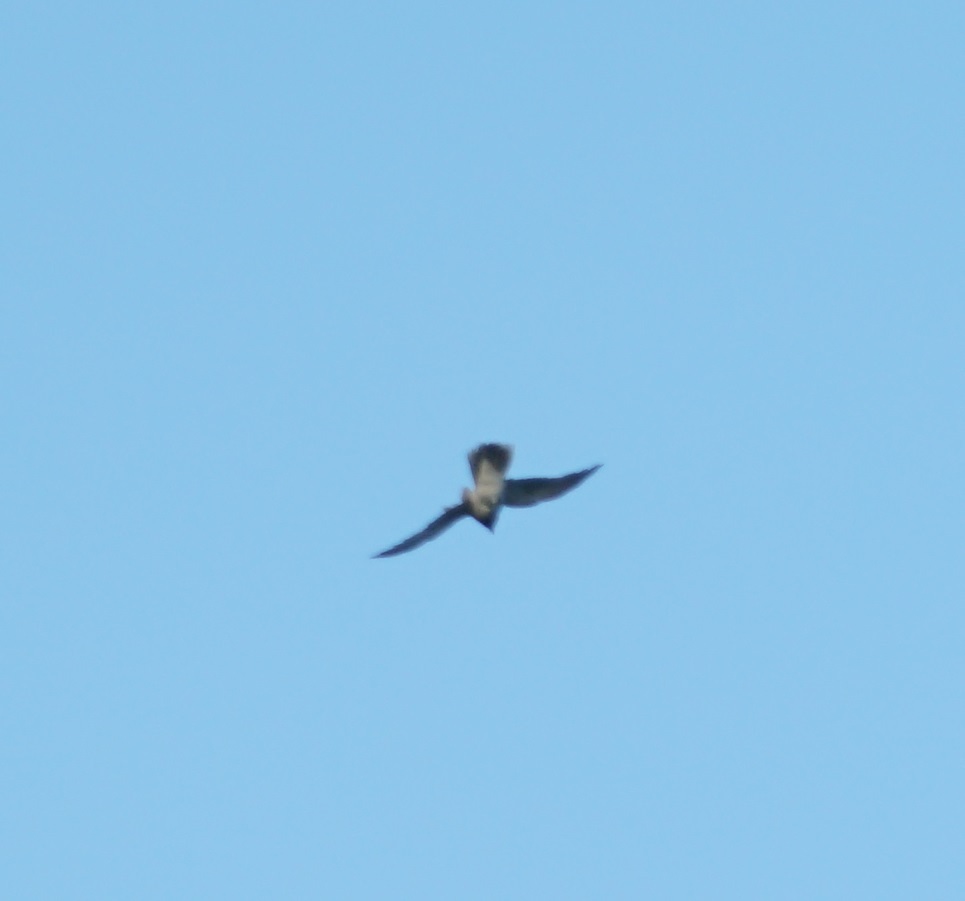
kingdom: Animalia
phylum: Chordata
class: Aves
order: Passeriformes
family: Campephagidae
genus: Coracina
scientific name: Coracina novaehollandiae
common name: Black-faced cuckooshrike
